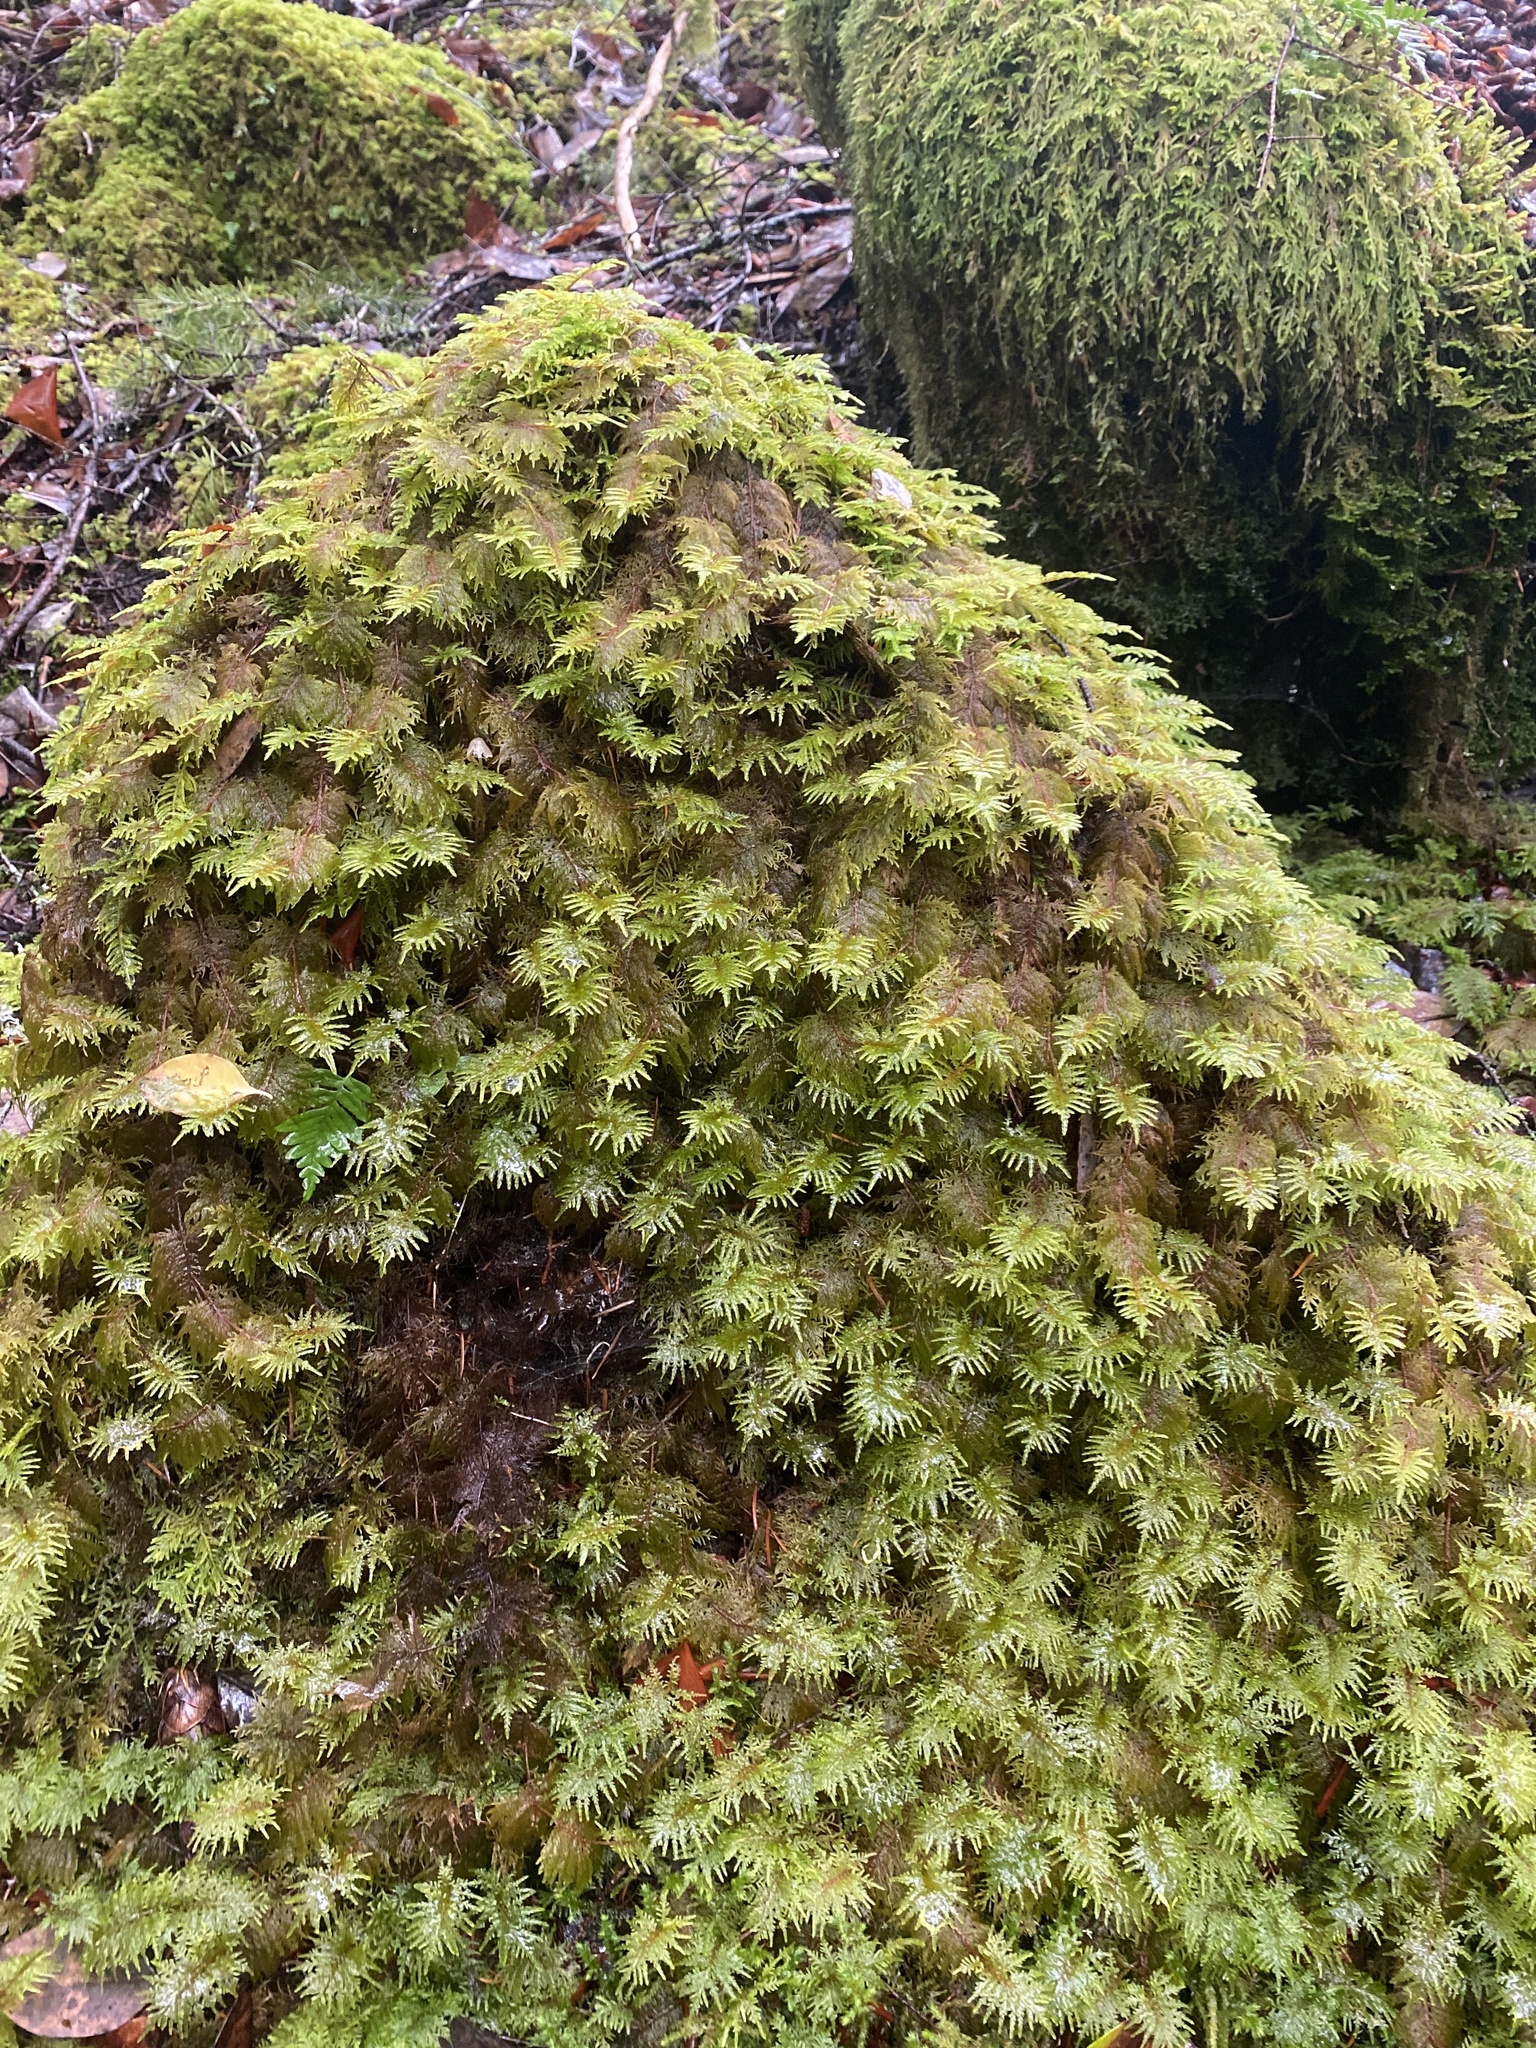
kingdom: Plantae
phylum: Bryophyta
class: Bryopsida
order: Hypnales
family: Hylocomiaceae
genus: Hylocomium
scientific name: Hylocomium splendens
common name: Stairstep moss
